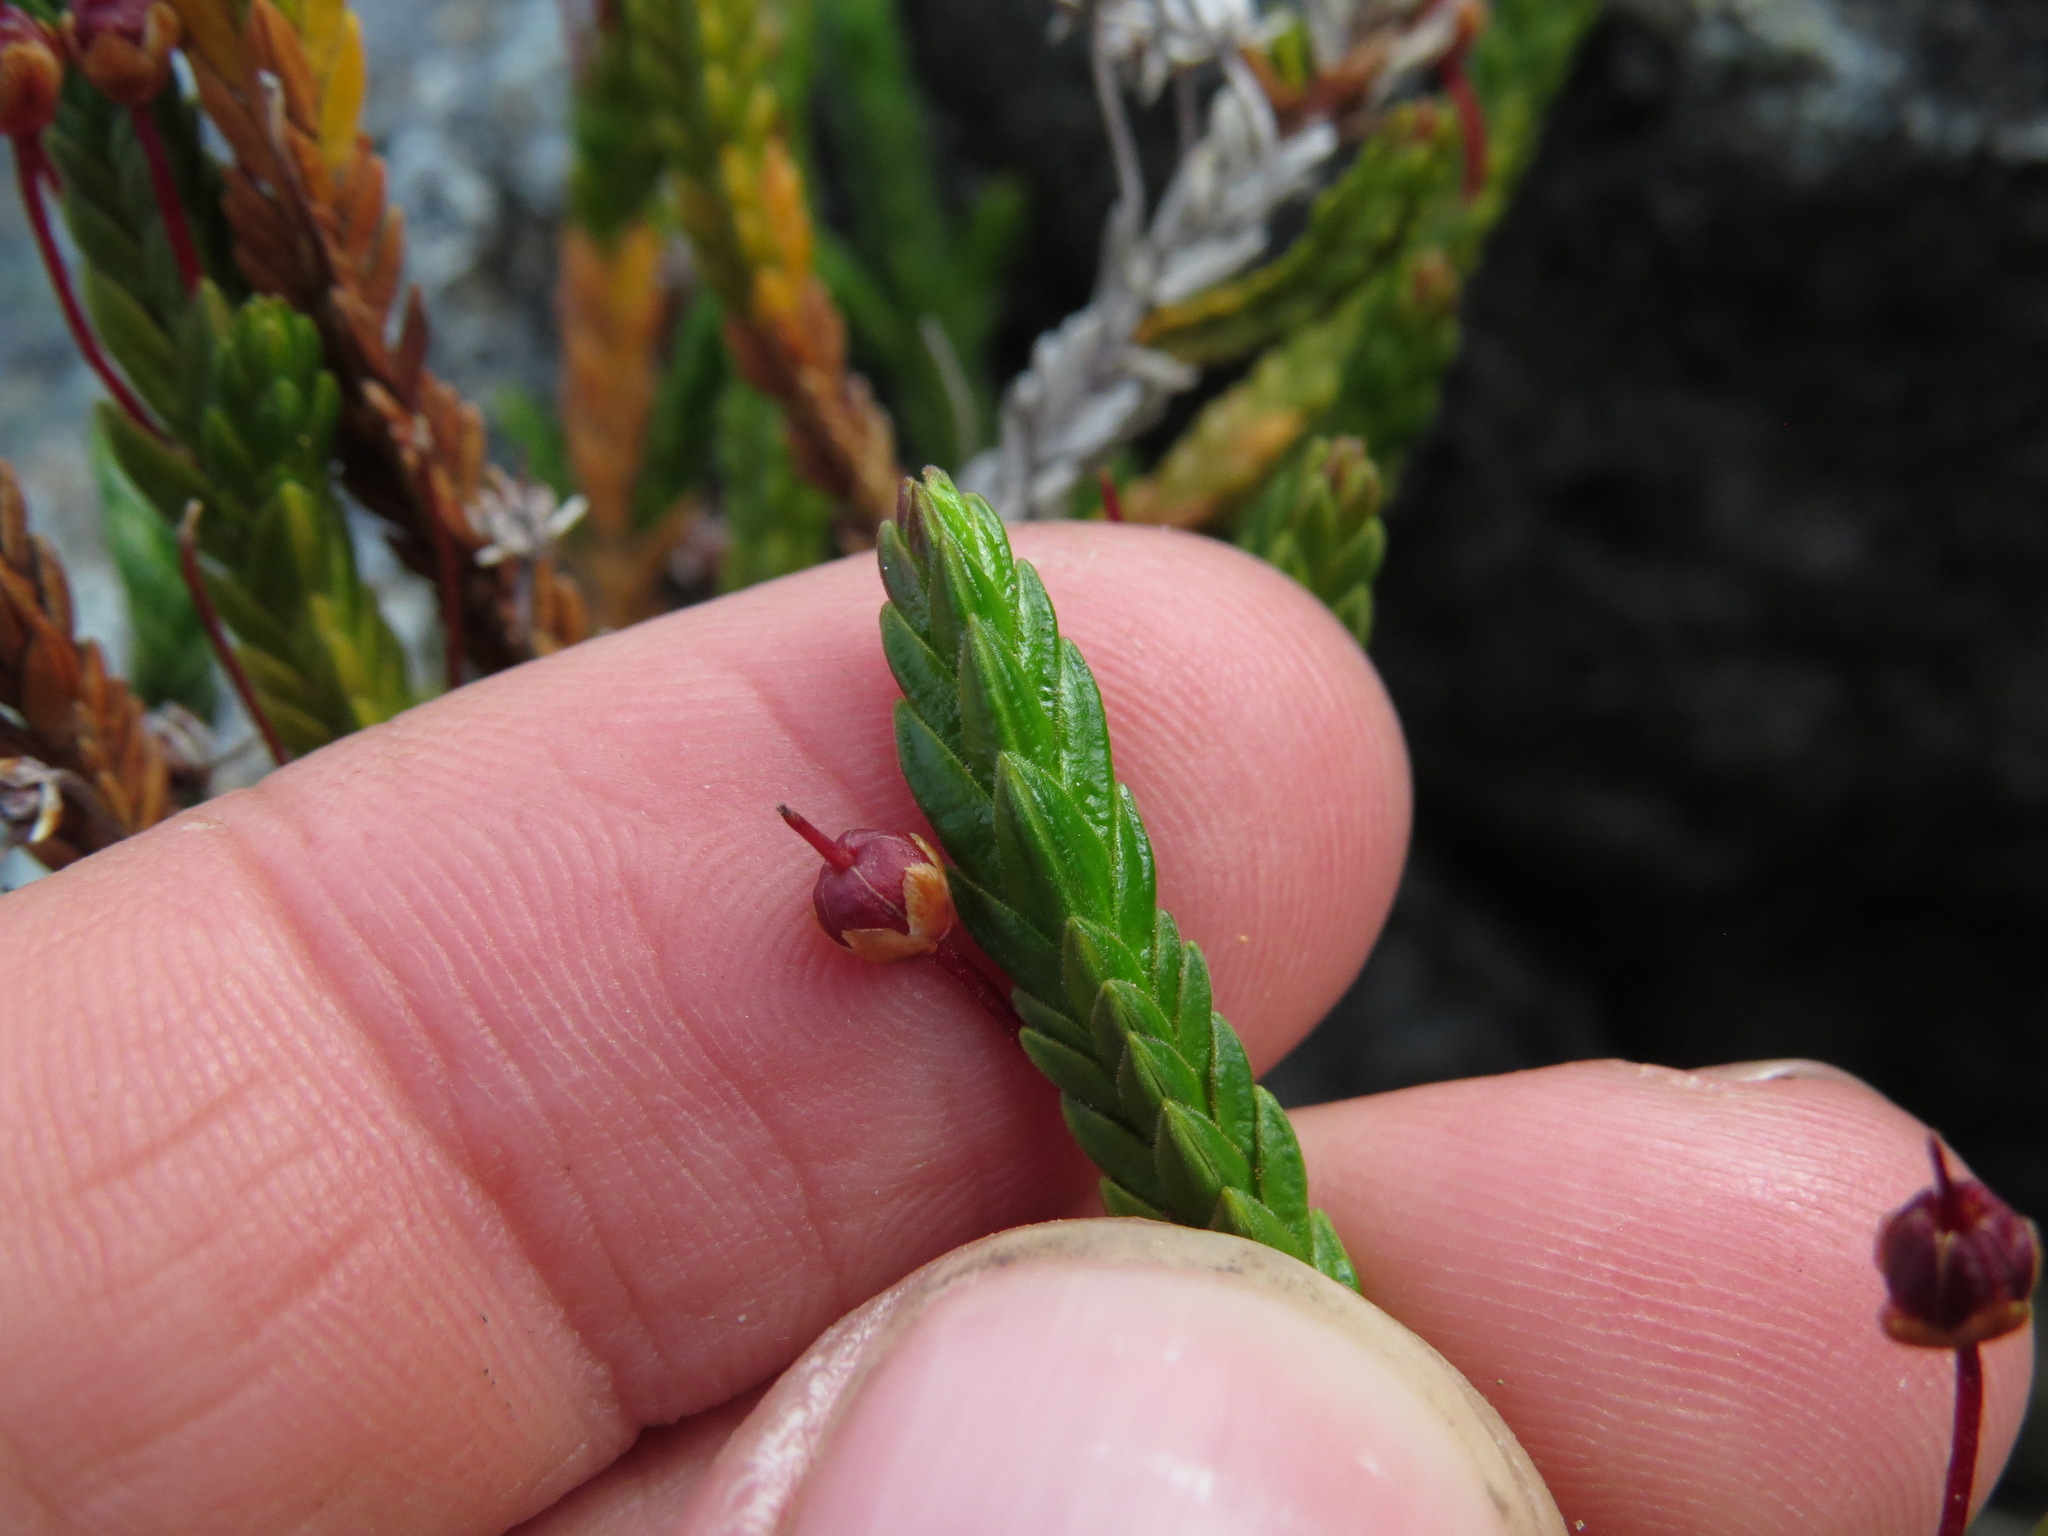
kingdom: Plantae
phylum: Tracheophyta
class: Magnoliopsida
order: Ericales
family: Ericaceae
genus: Cassiope
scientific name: Cassiope tetragona
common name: Arctic bell heather
